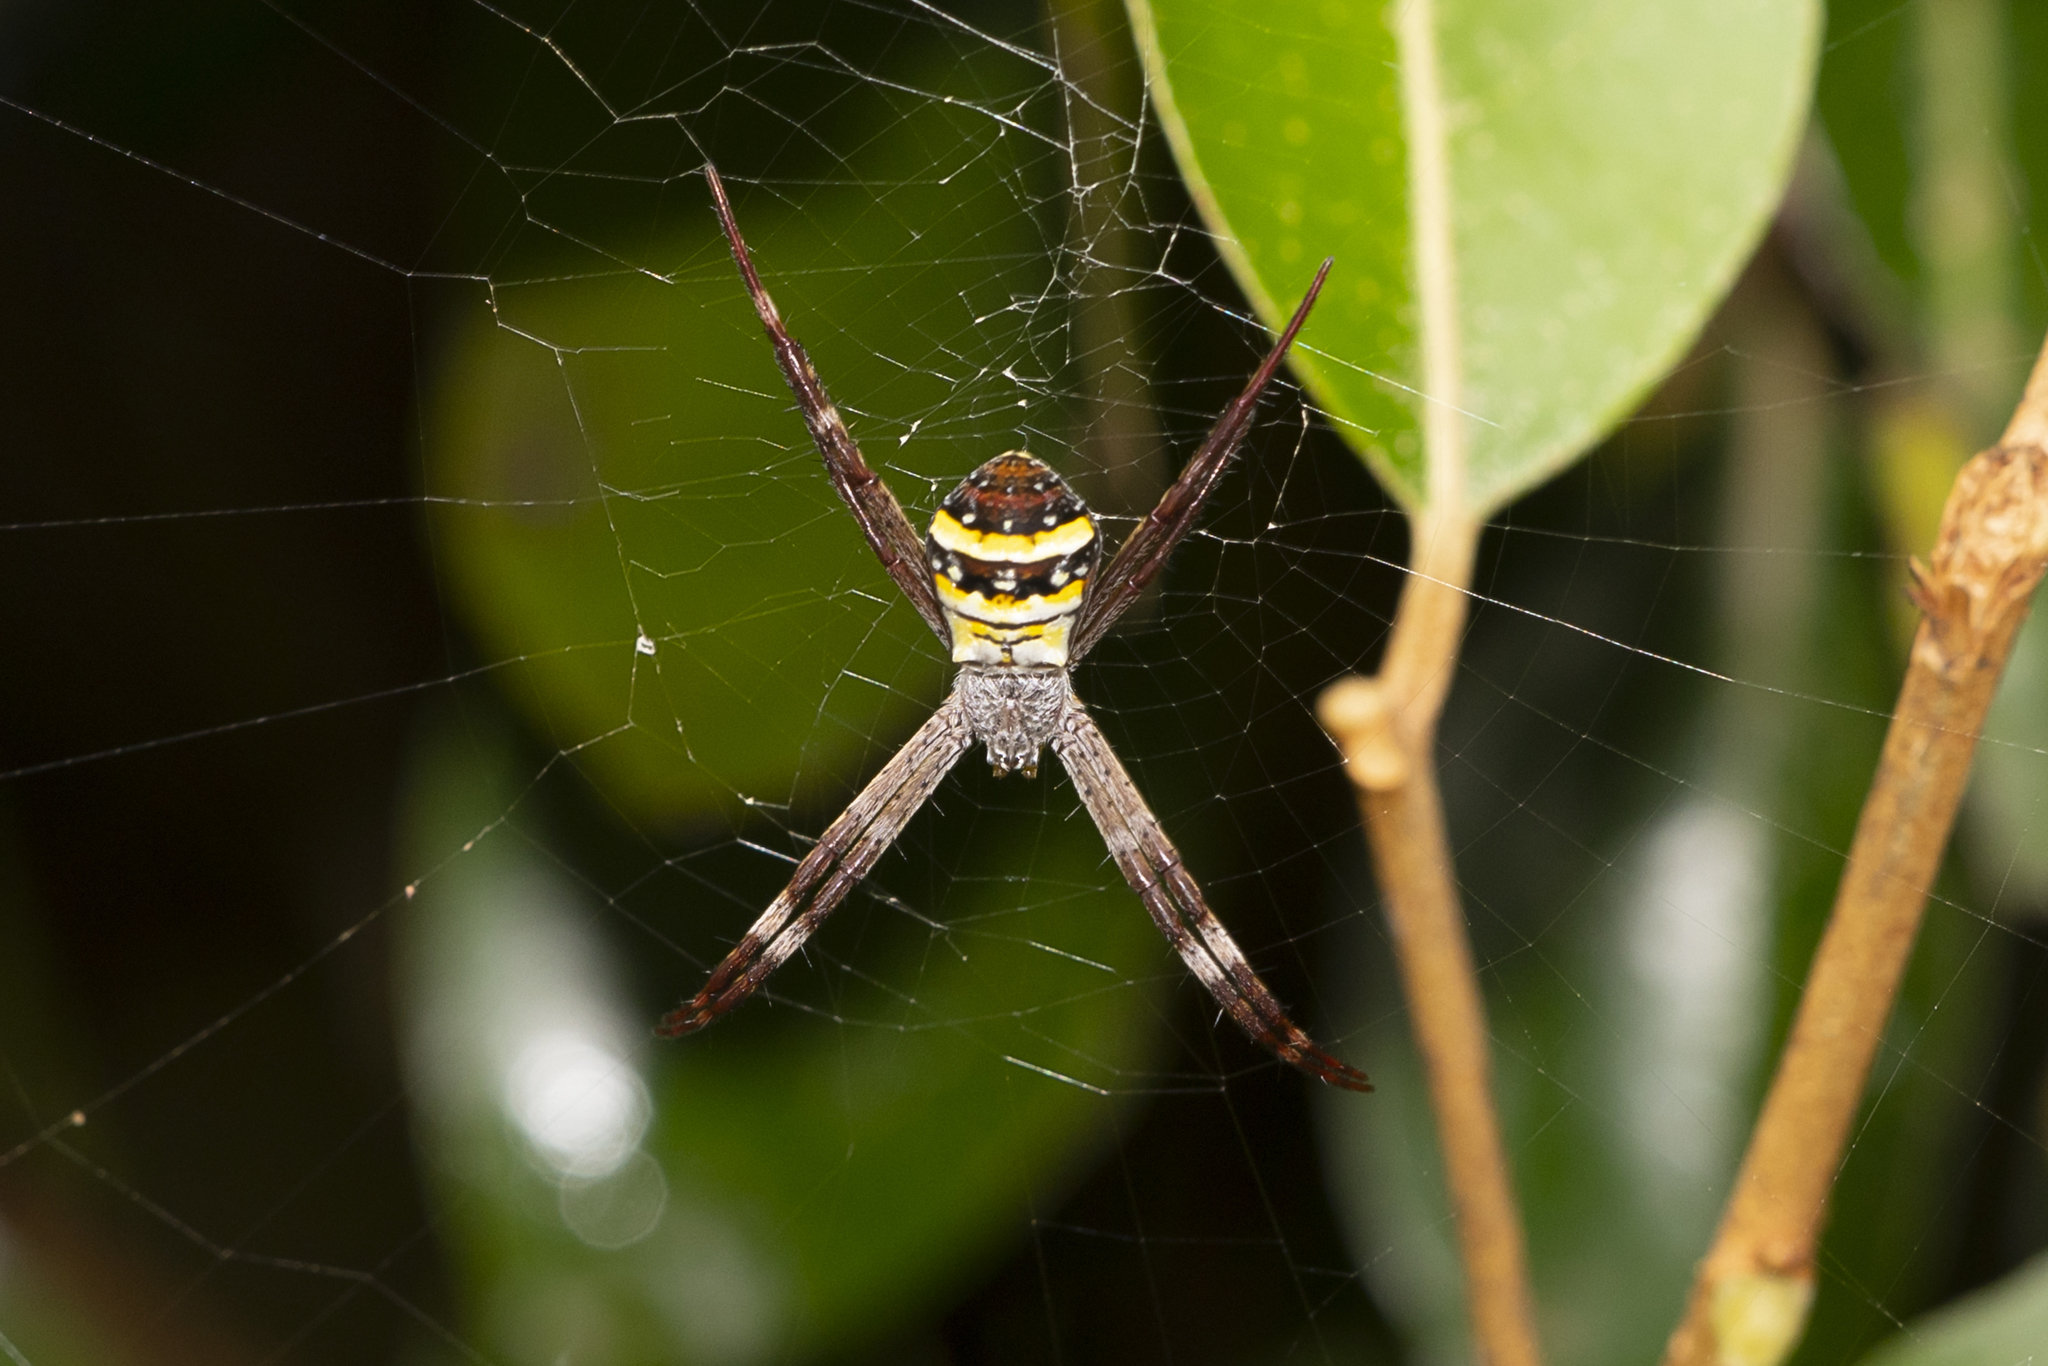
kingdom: Animalia
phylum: Arthropoda
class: Arachnida
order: Araneae
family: Araneidae
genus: Argiope
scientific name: Argiope aetherea
